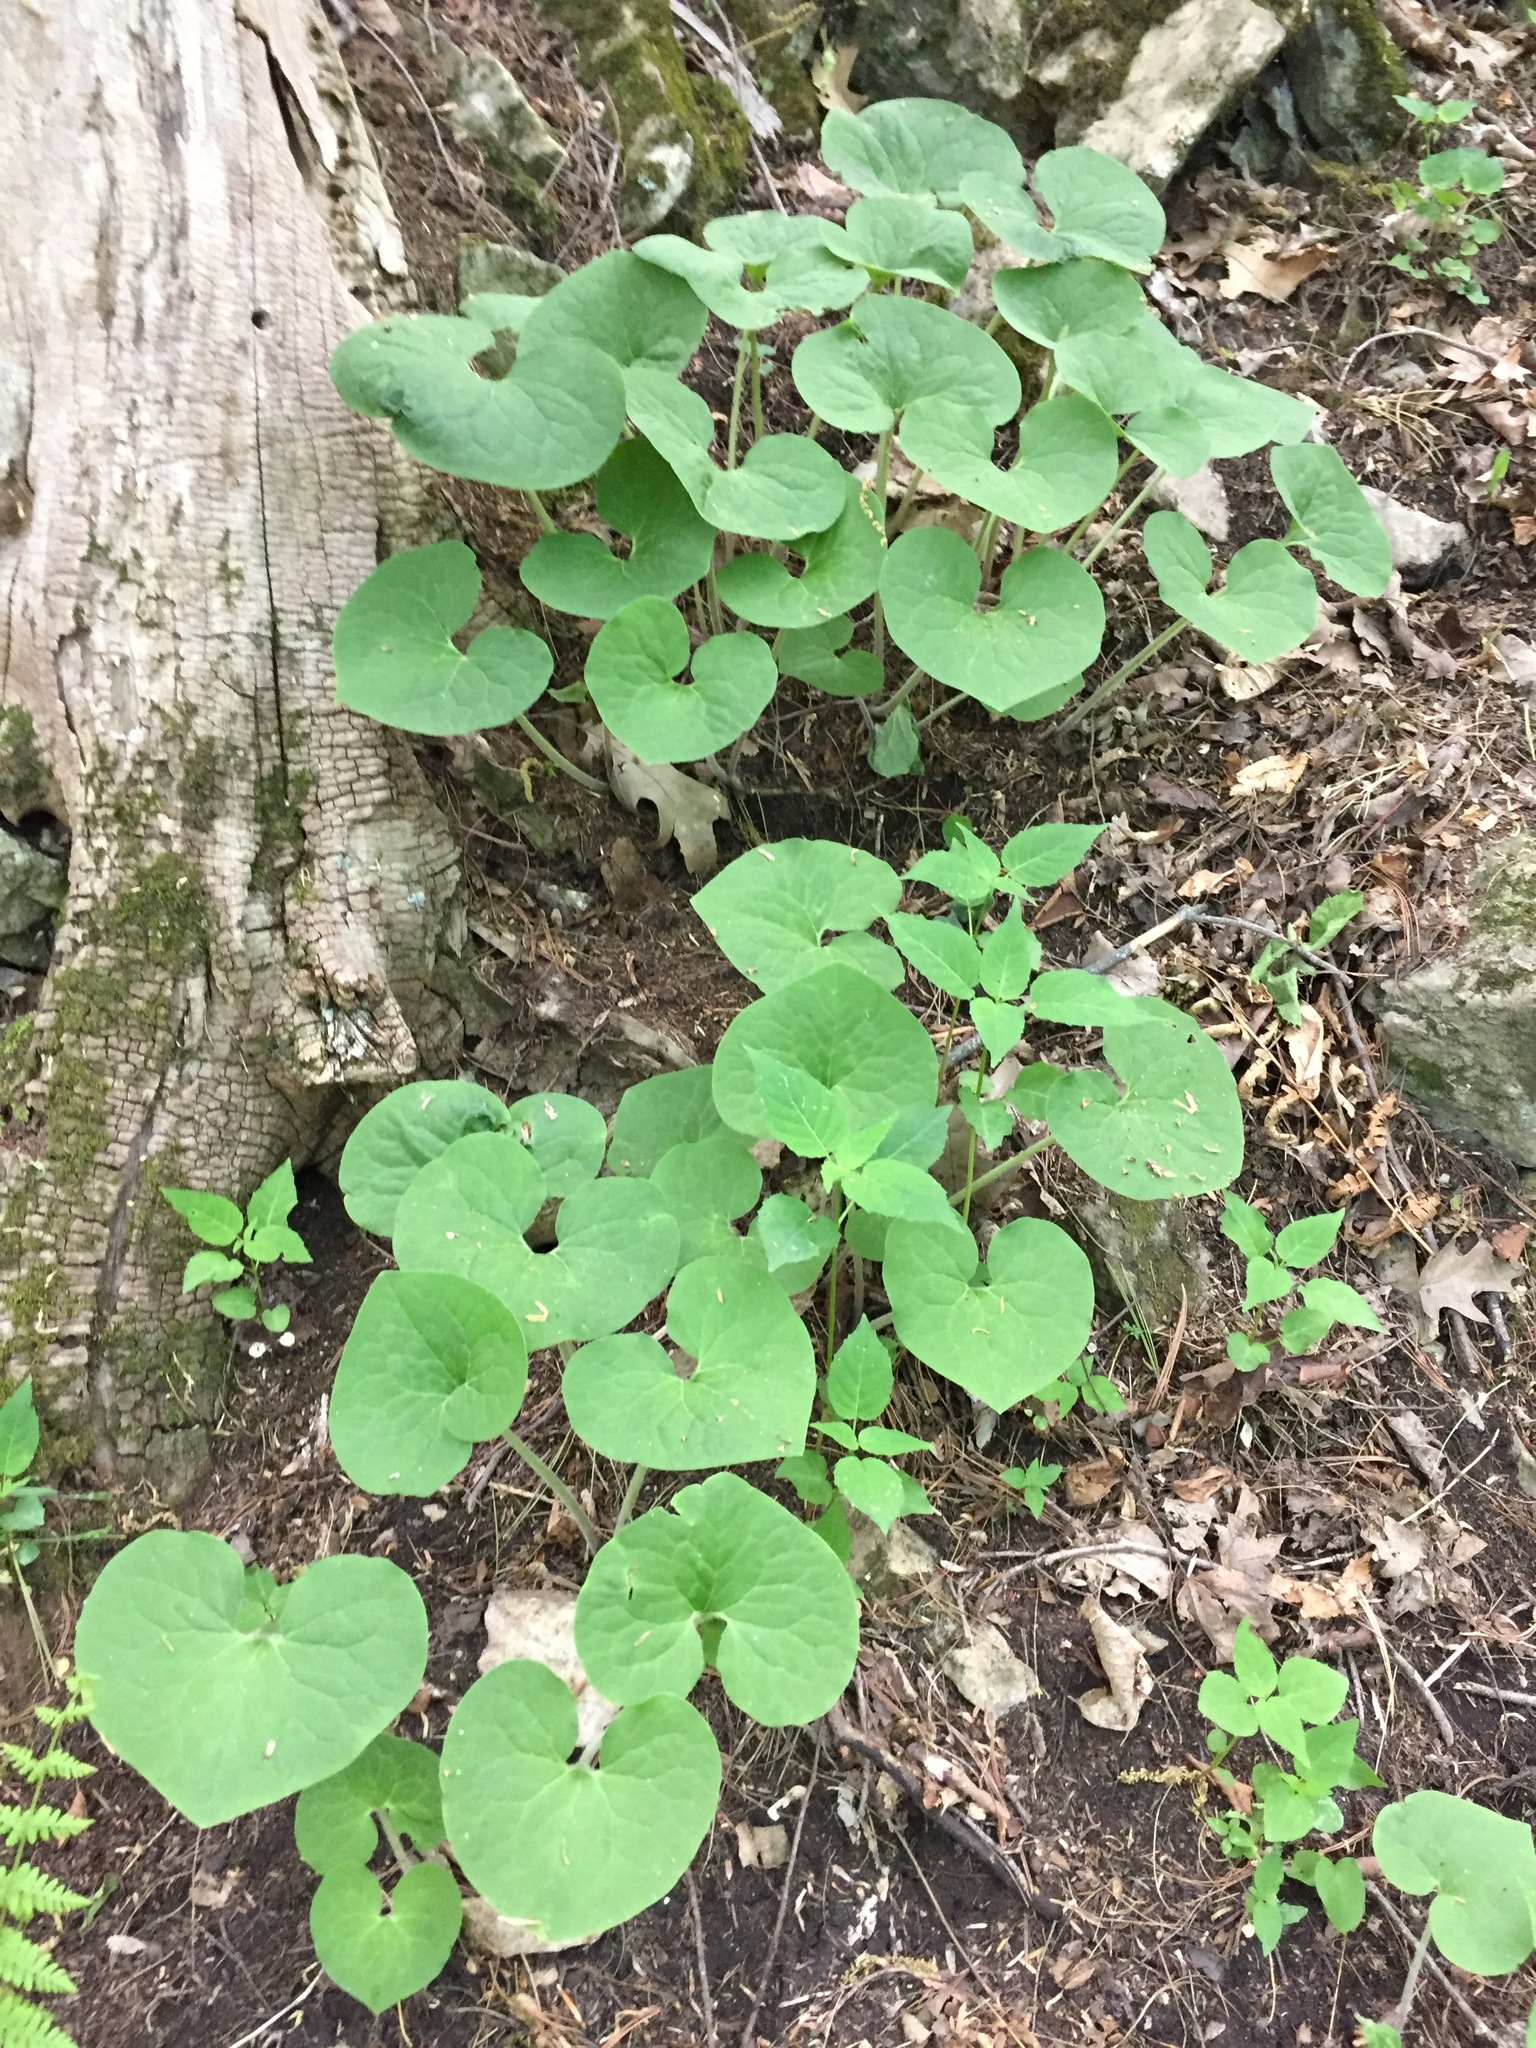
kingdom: Plantae
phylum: Tracheophyta
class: Magnoliopsida
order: Piperales
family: Aristolochiaceae
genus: Asarum
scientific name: Asarum canadense
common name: Wild ginger
